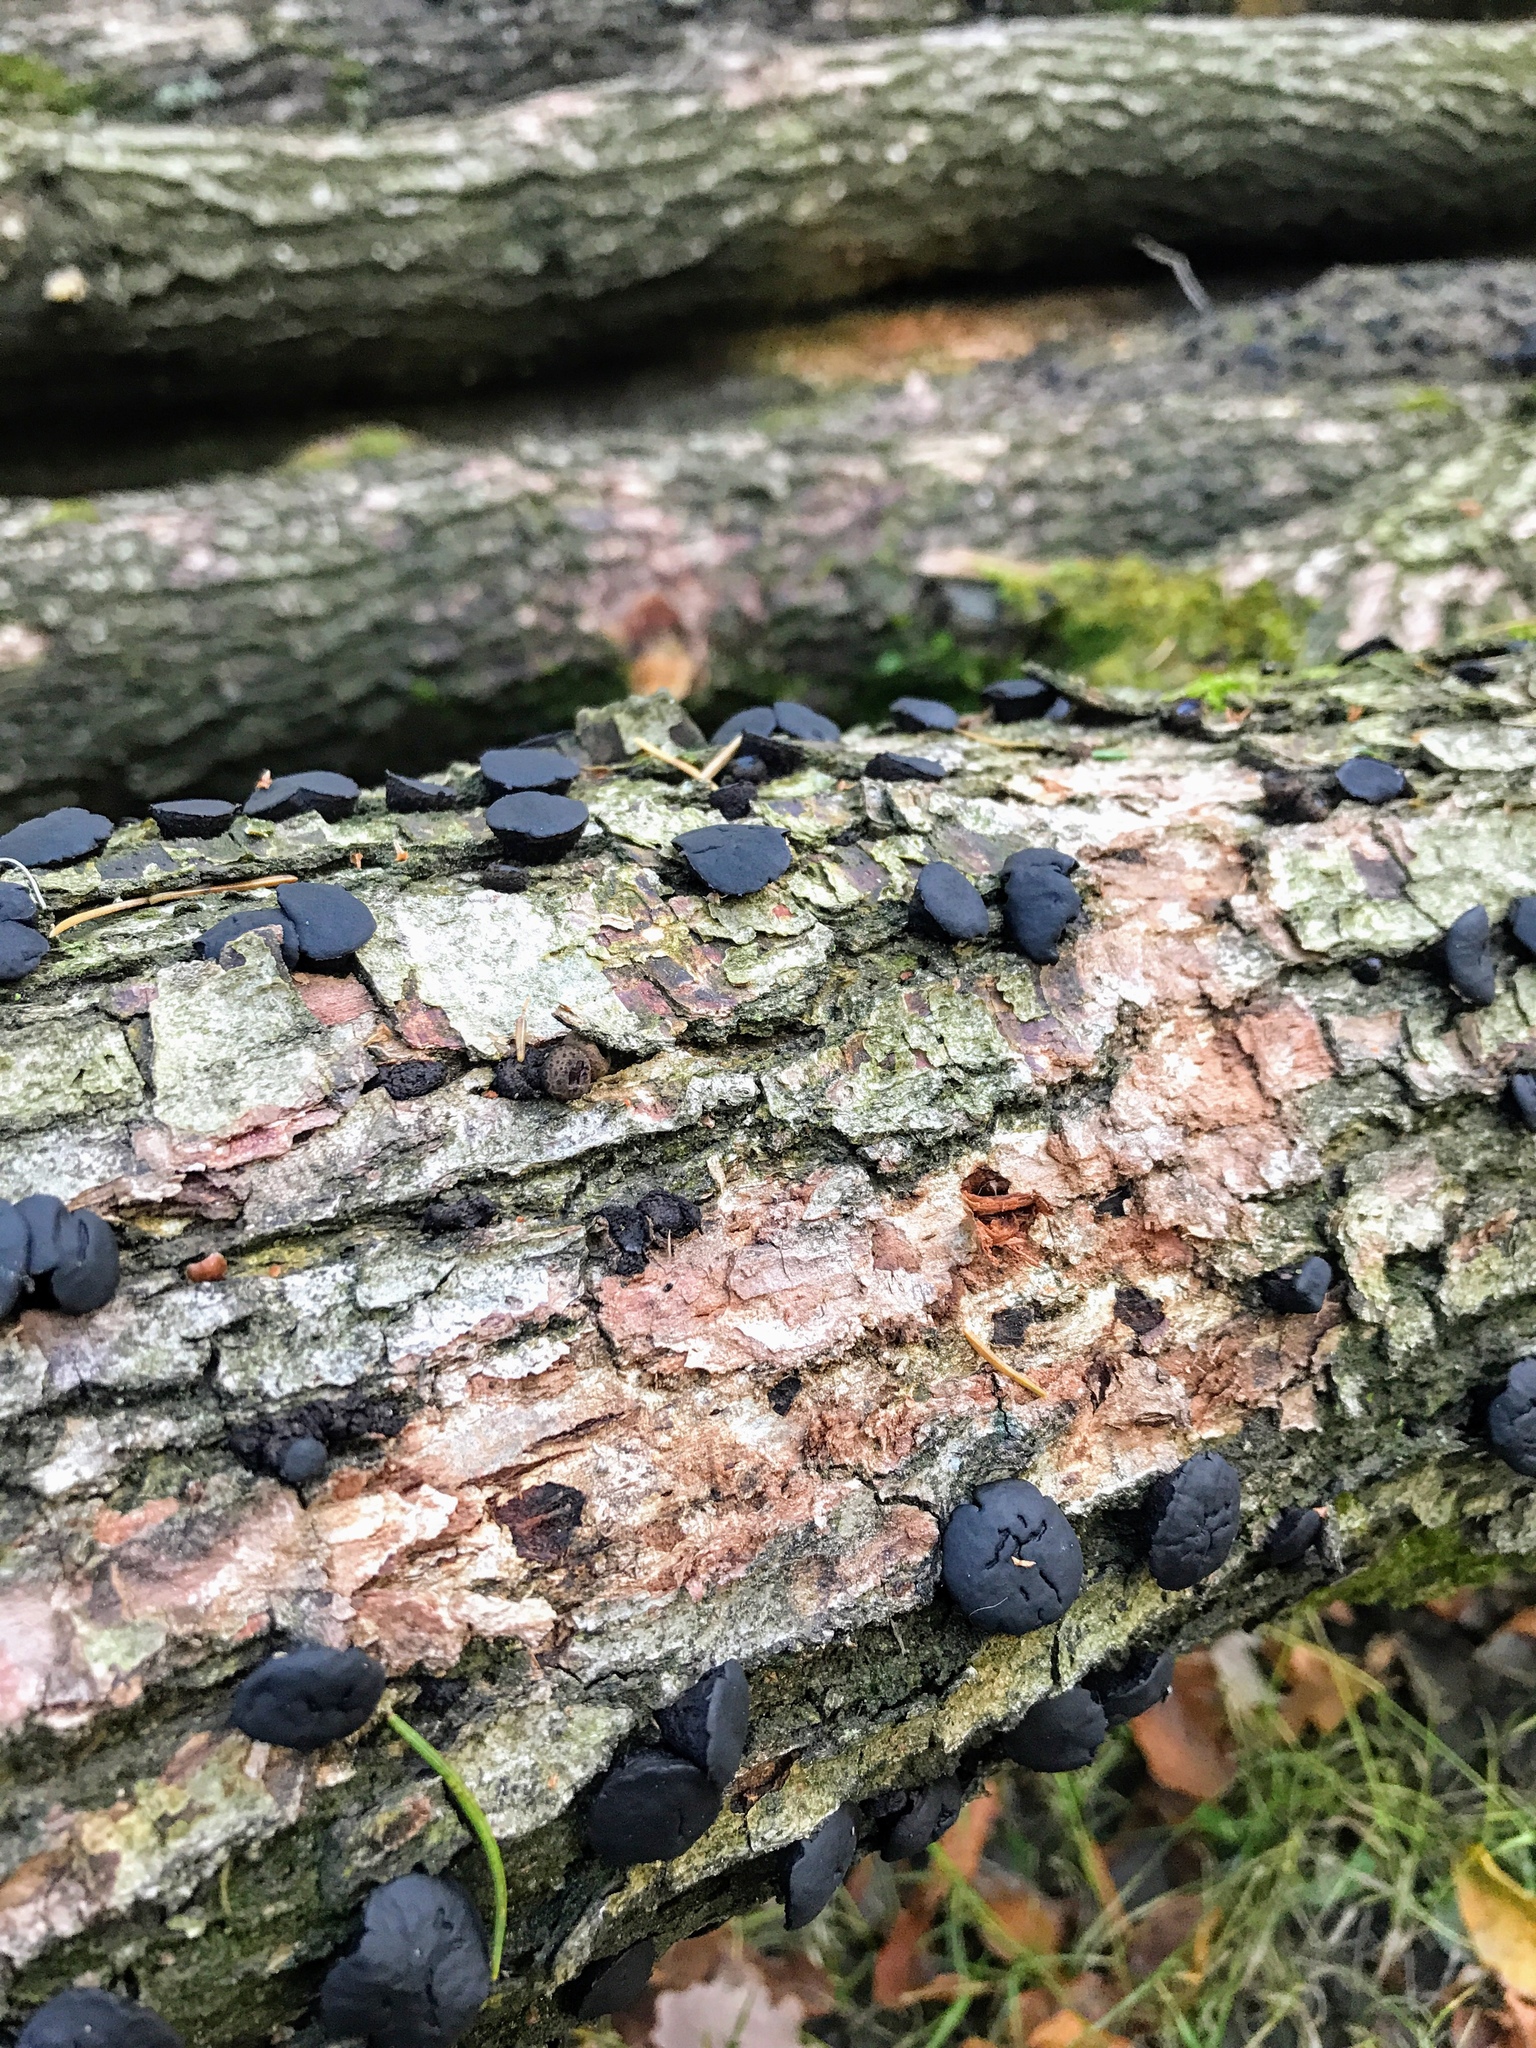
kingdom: Fungi
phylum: Ascomycota
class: Leotiomycetes
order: Phacidiales
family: Phacidiaceae
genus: Bulgaria
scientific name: Bulgaria inquinans
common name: Black bulgar
